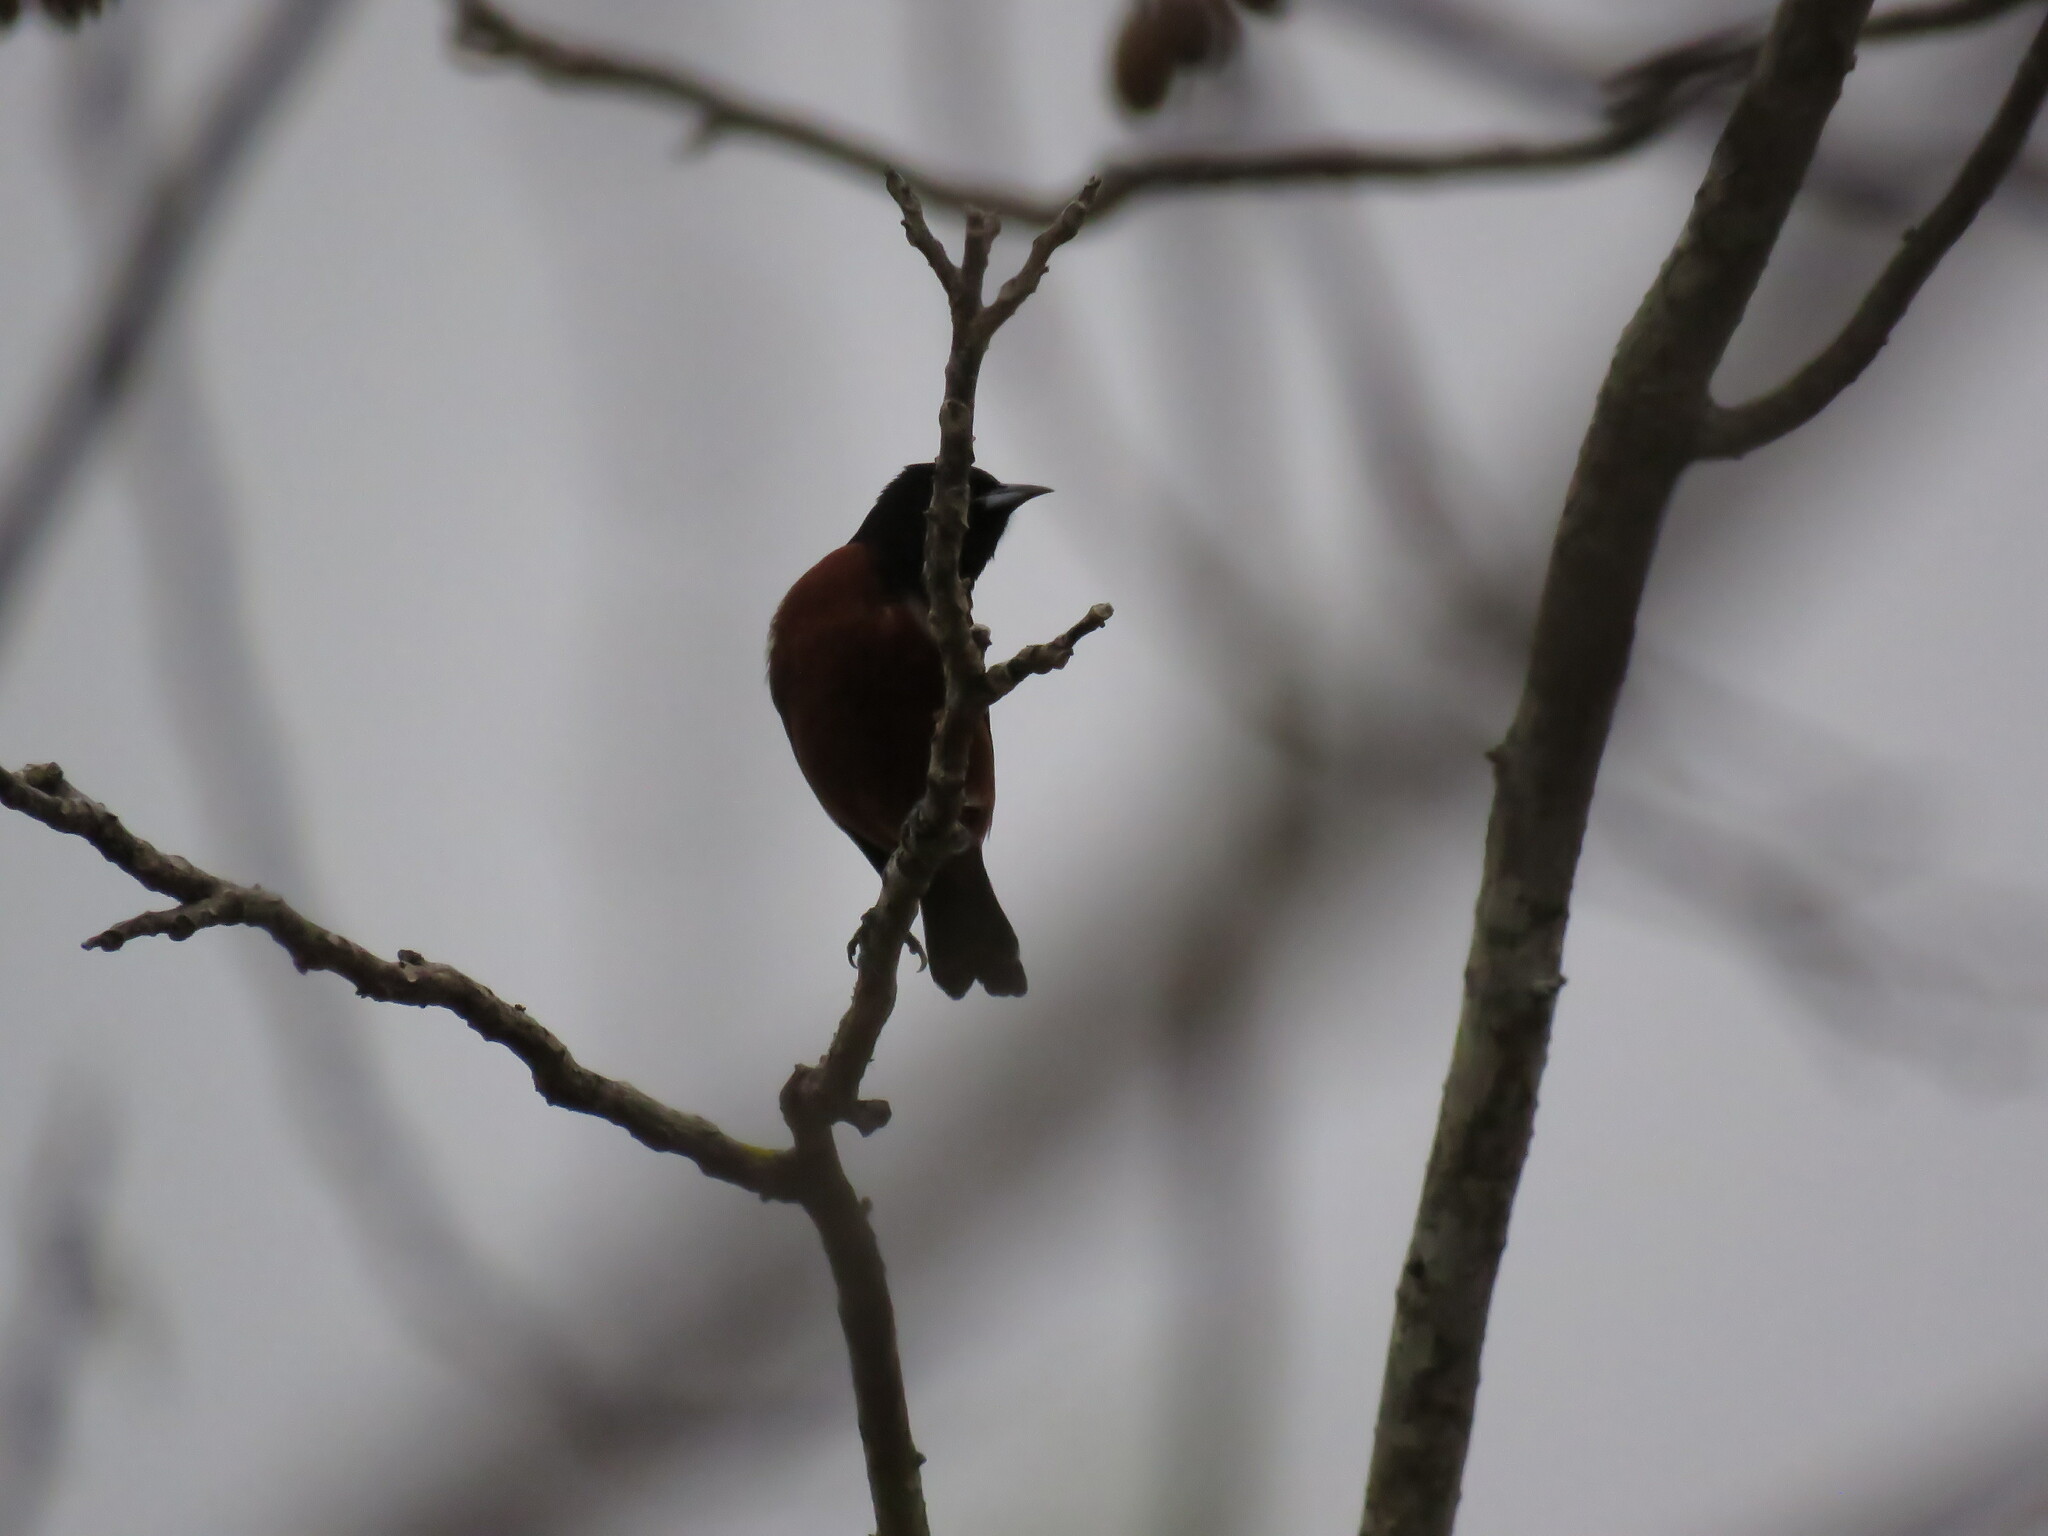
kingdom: Animalia
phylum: Chordata
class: Aves
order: Passeriformes
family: Icteridae
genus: Icterus
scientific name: Icterus spurius
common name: Orchard oriole
